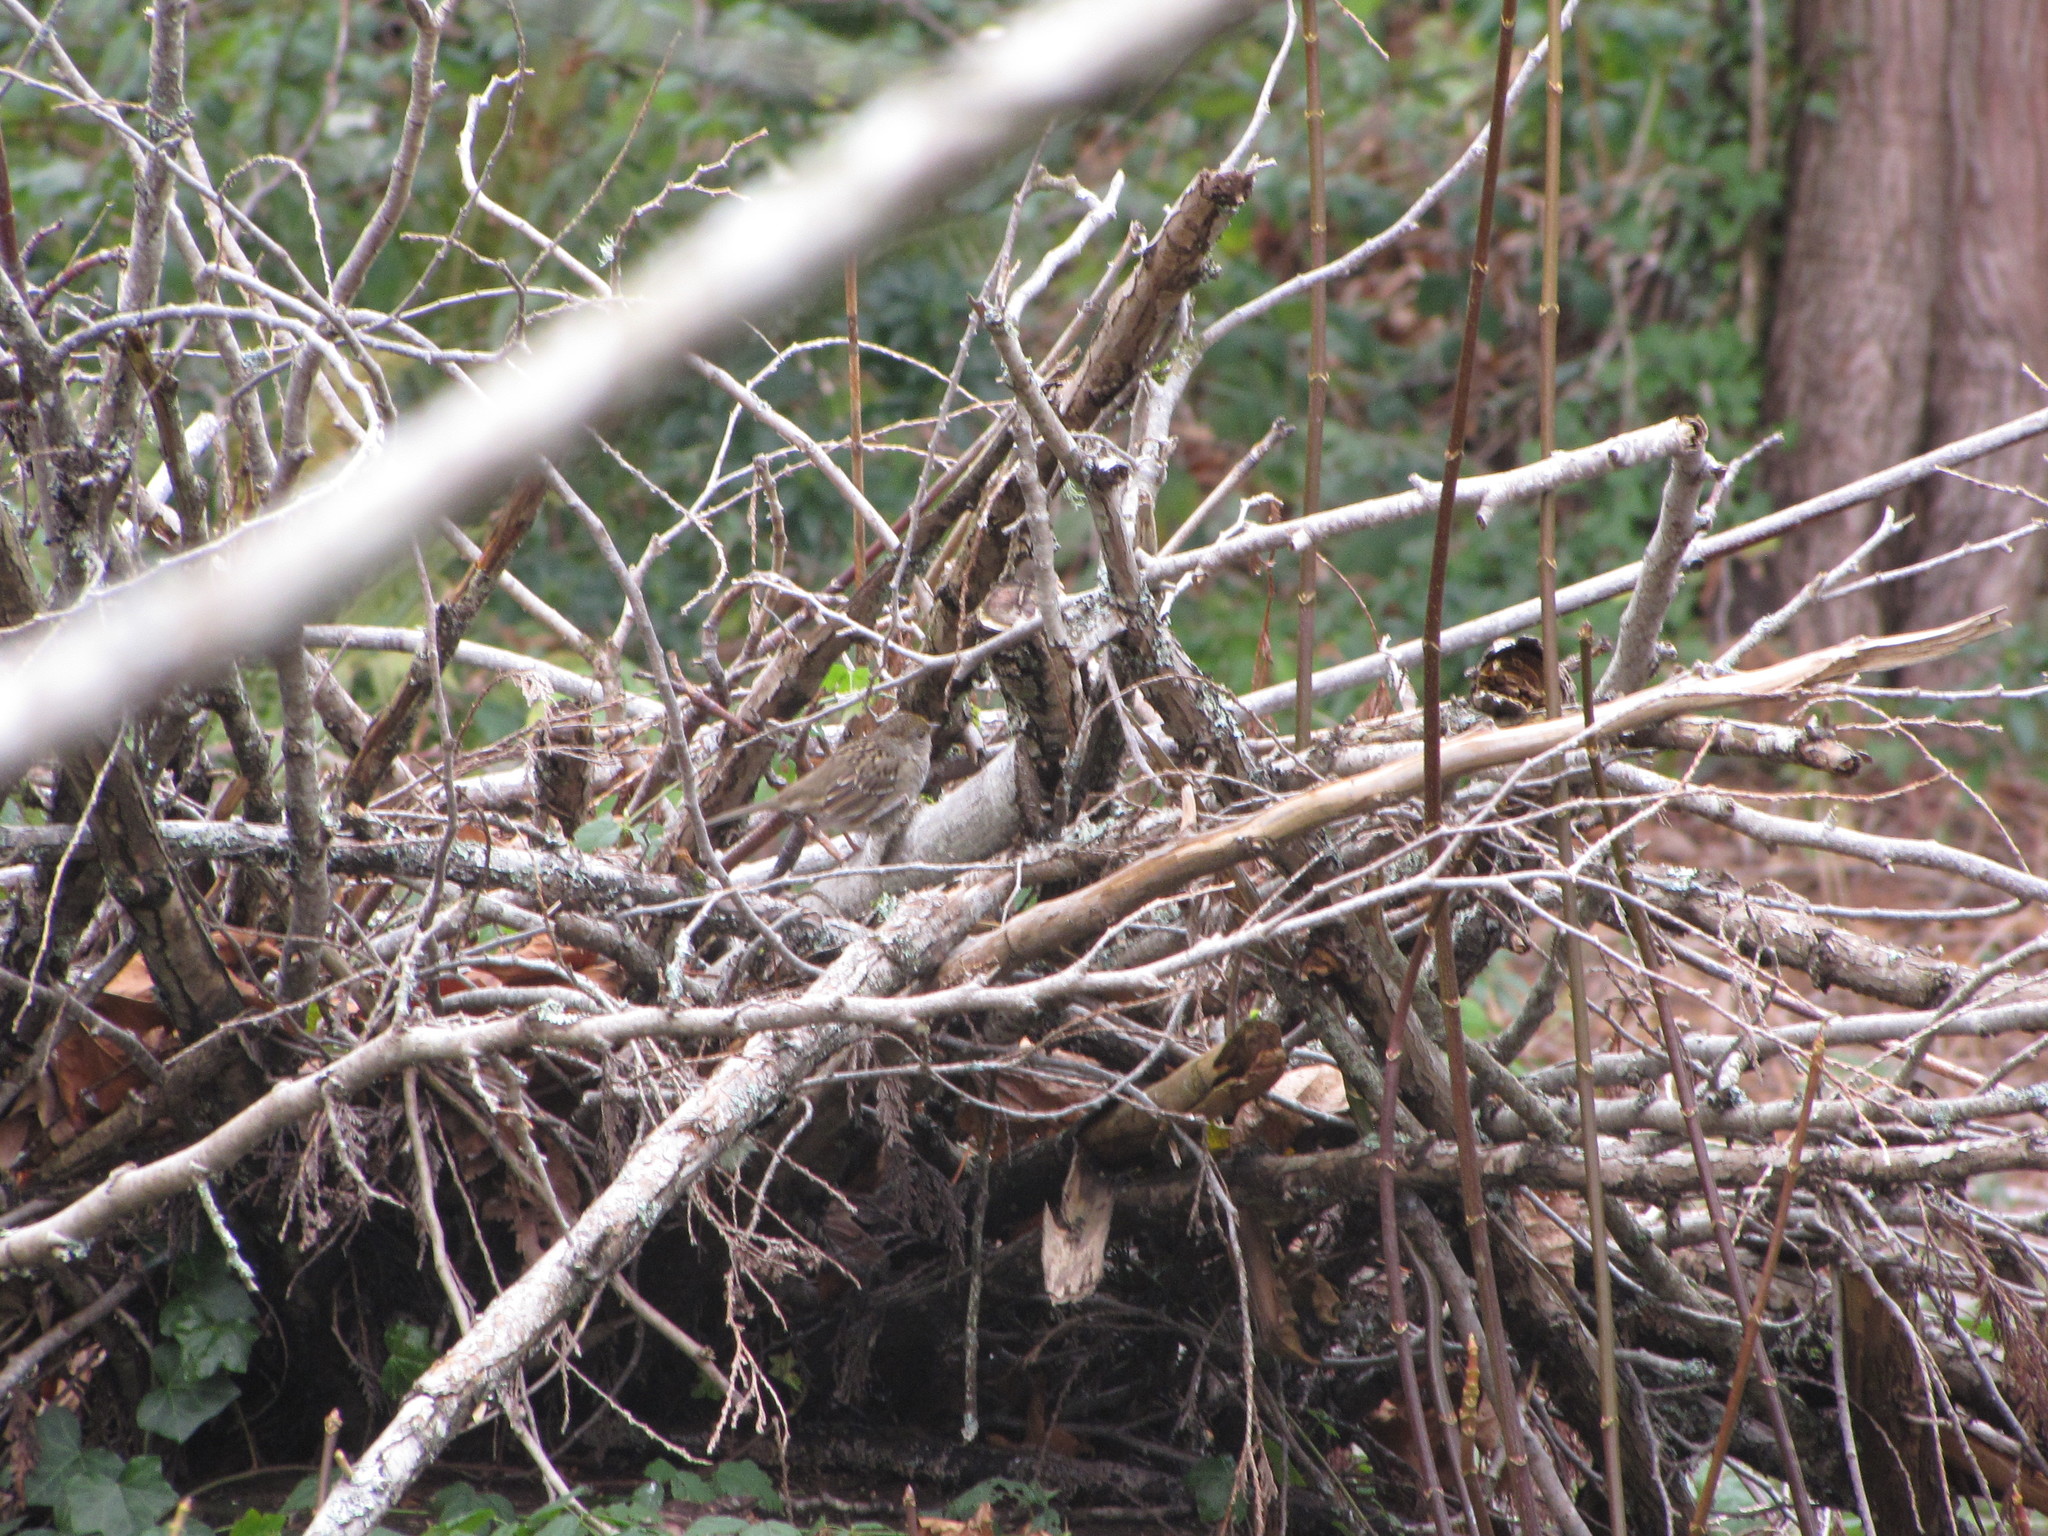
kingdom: Animalia
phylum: Chordata
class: Aves
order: Passeriformes
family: Passerellidae
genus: Zonotrichia
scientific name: Zonotrichia atricapilla
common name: Golden-crowned sparrow
